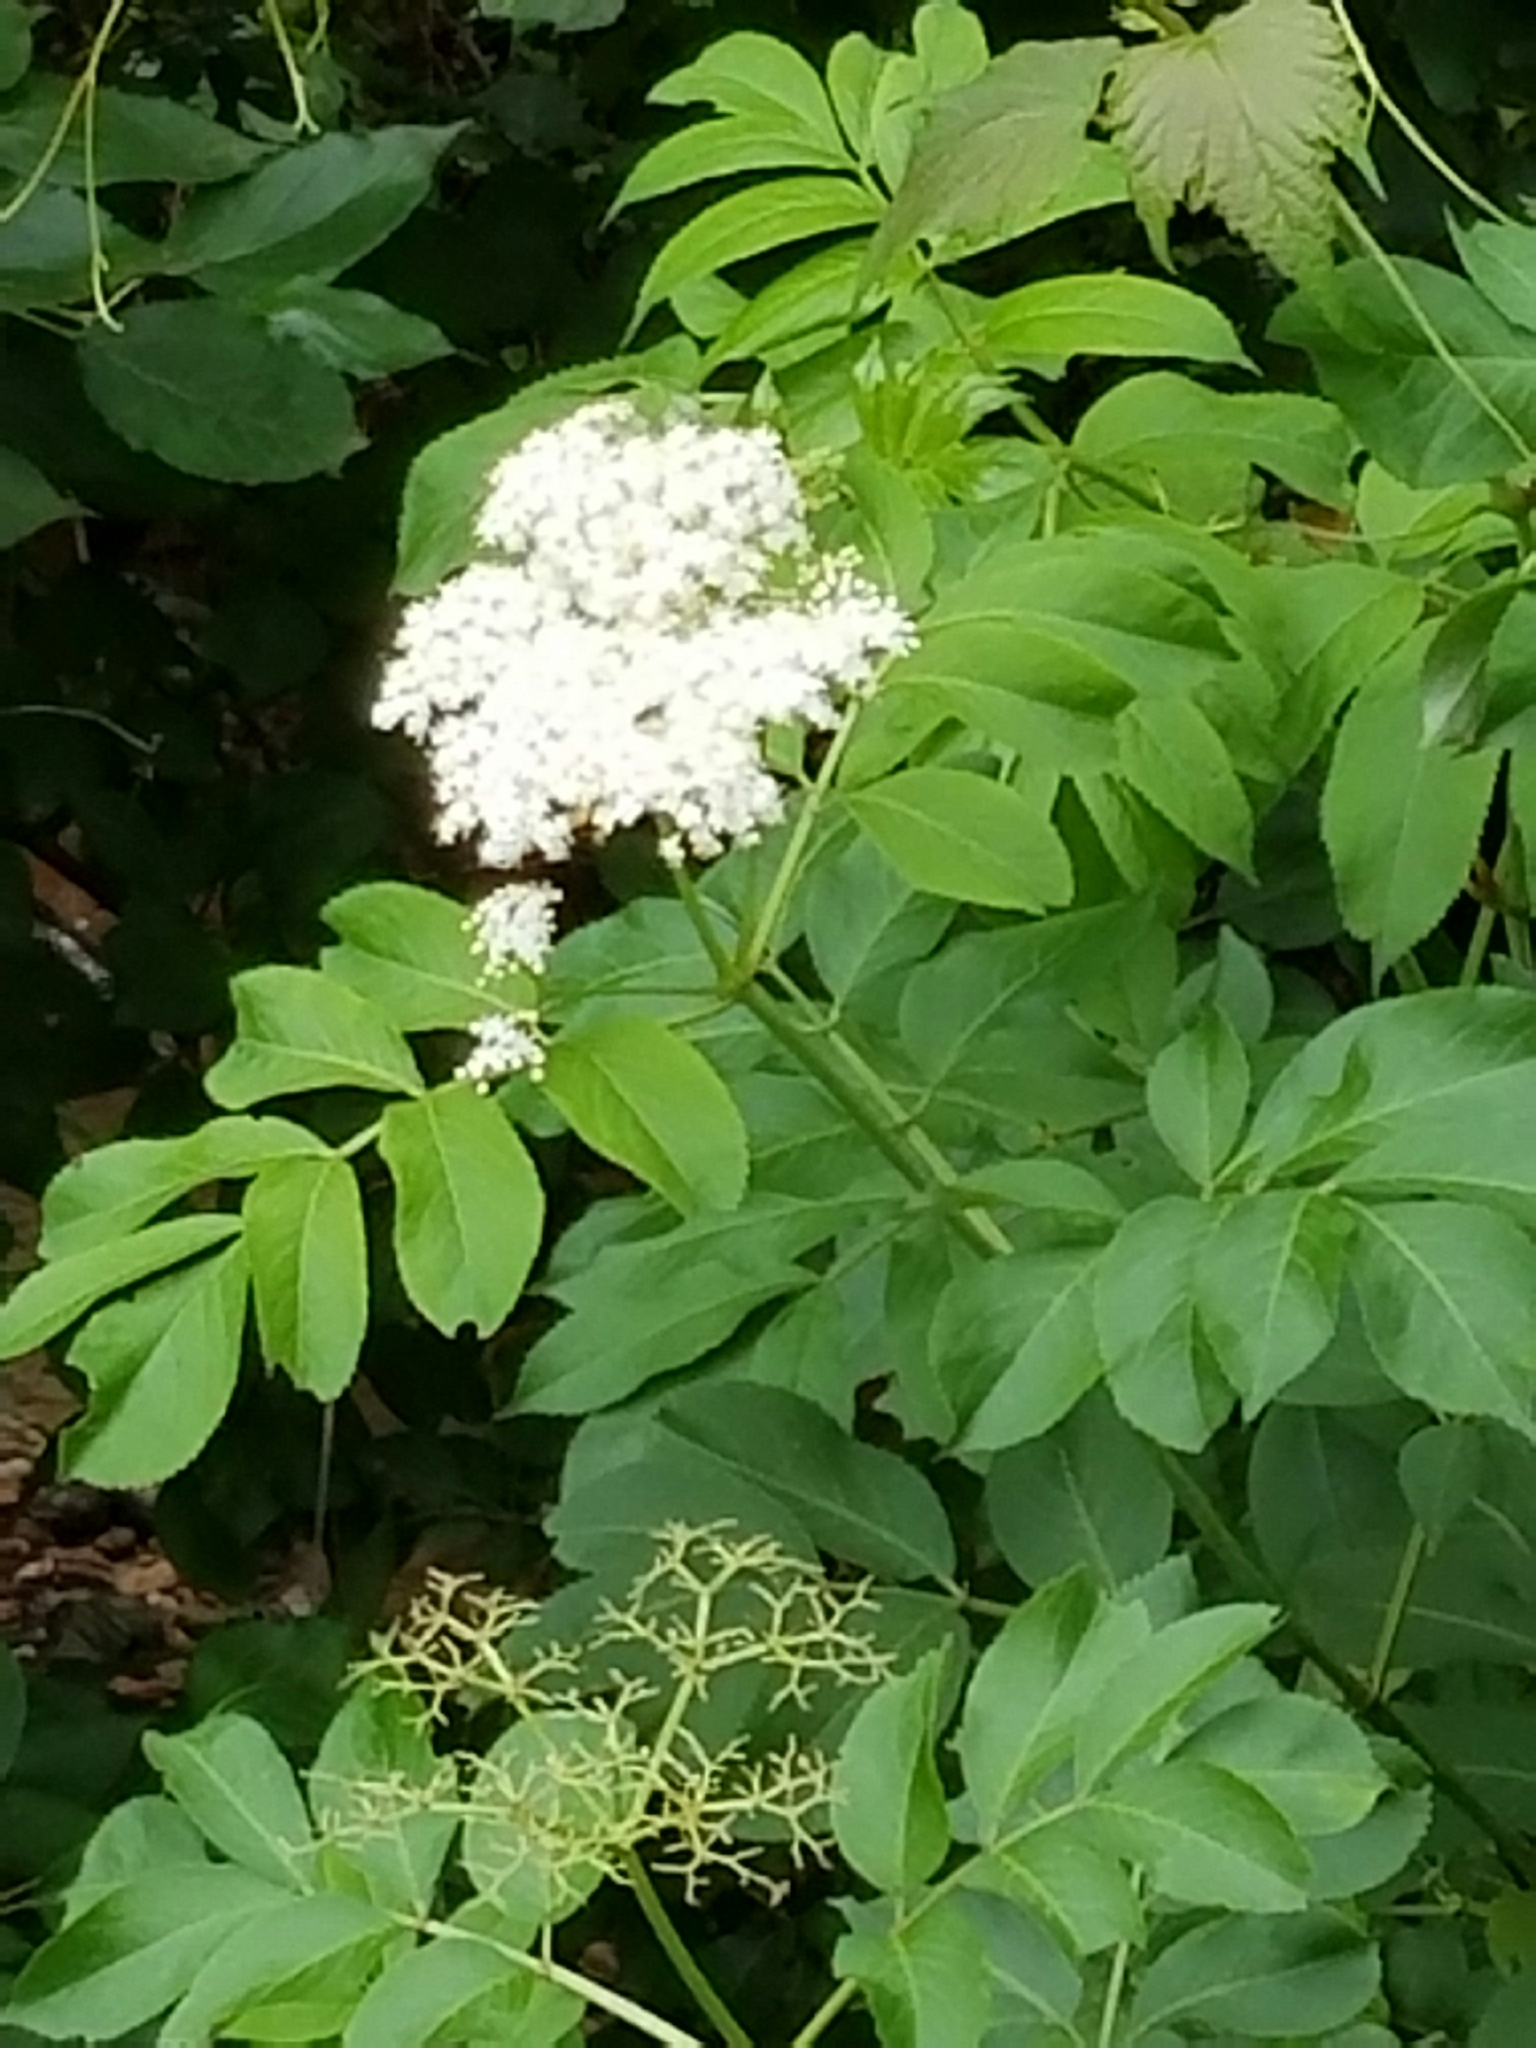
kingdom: Plantae
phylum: Tracheophyta
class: Magnoliopsida
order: Dipsacales
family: Viburnaceae
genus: Sambucus
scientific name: Sambucus canadensis
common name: American elder
